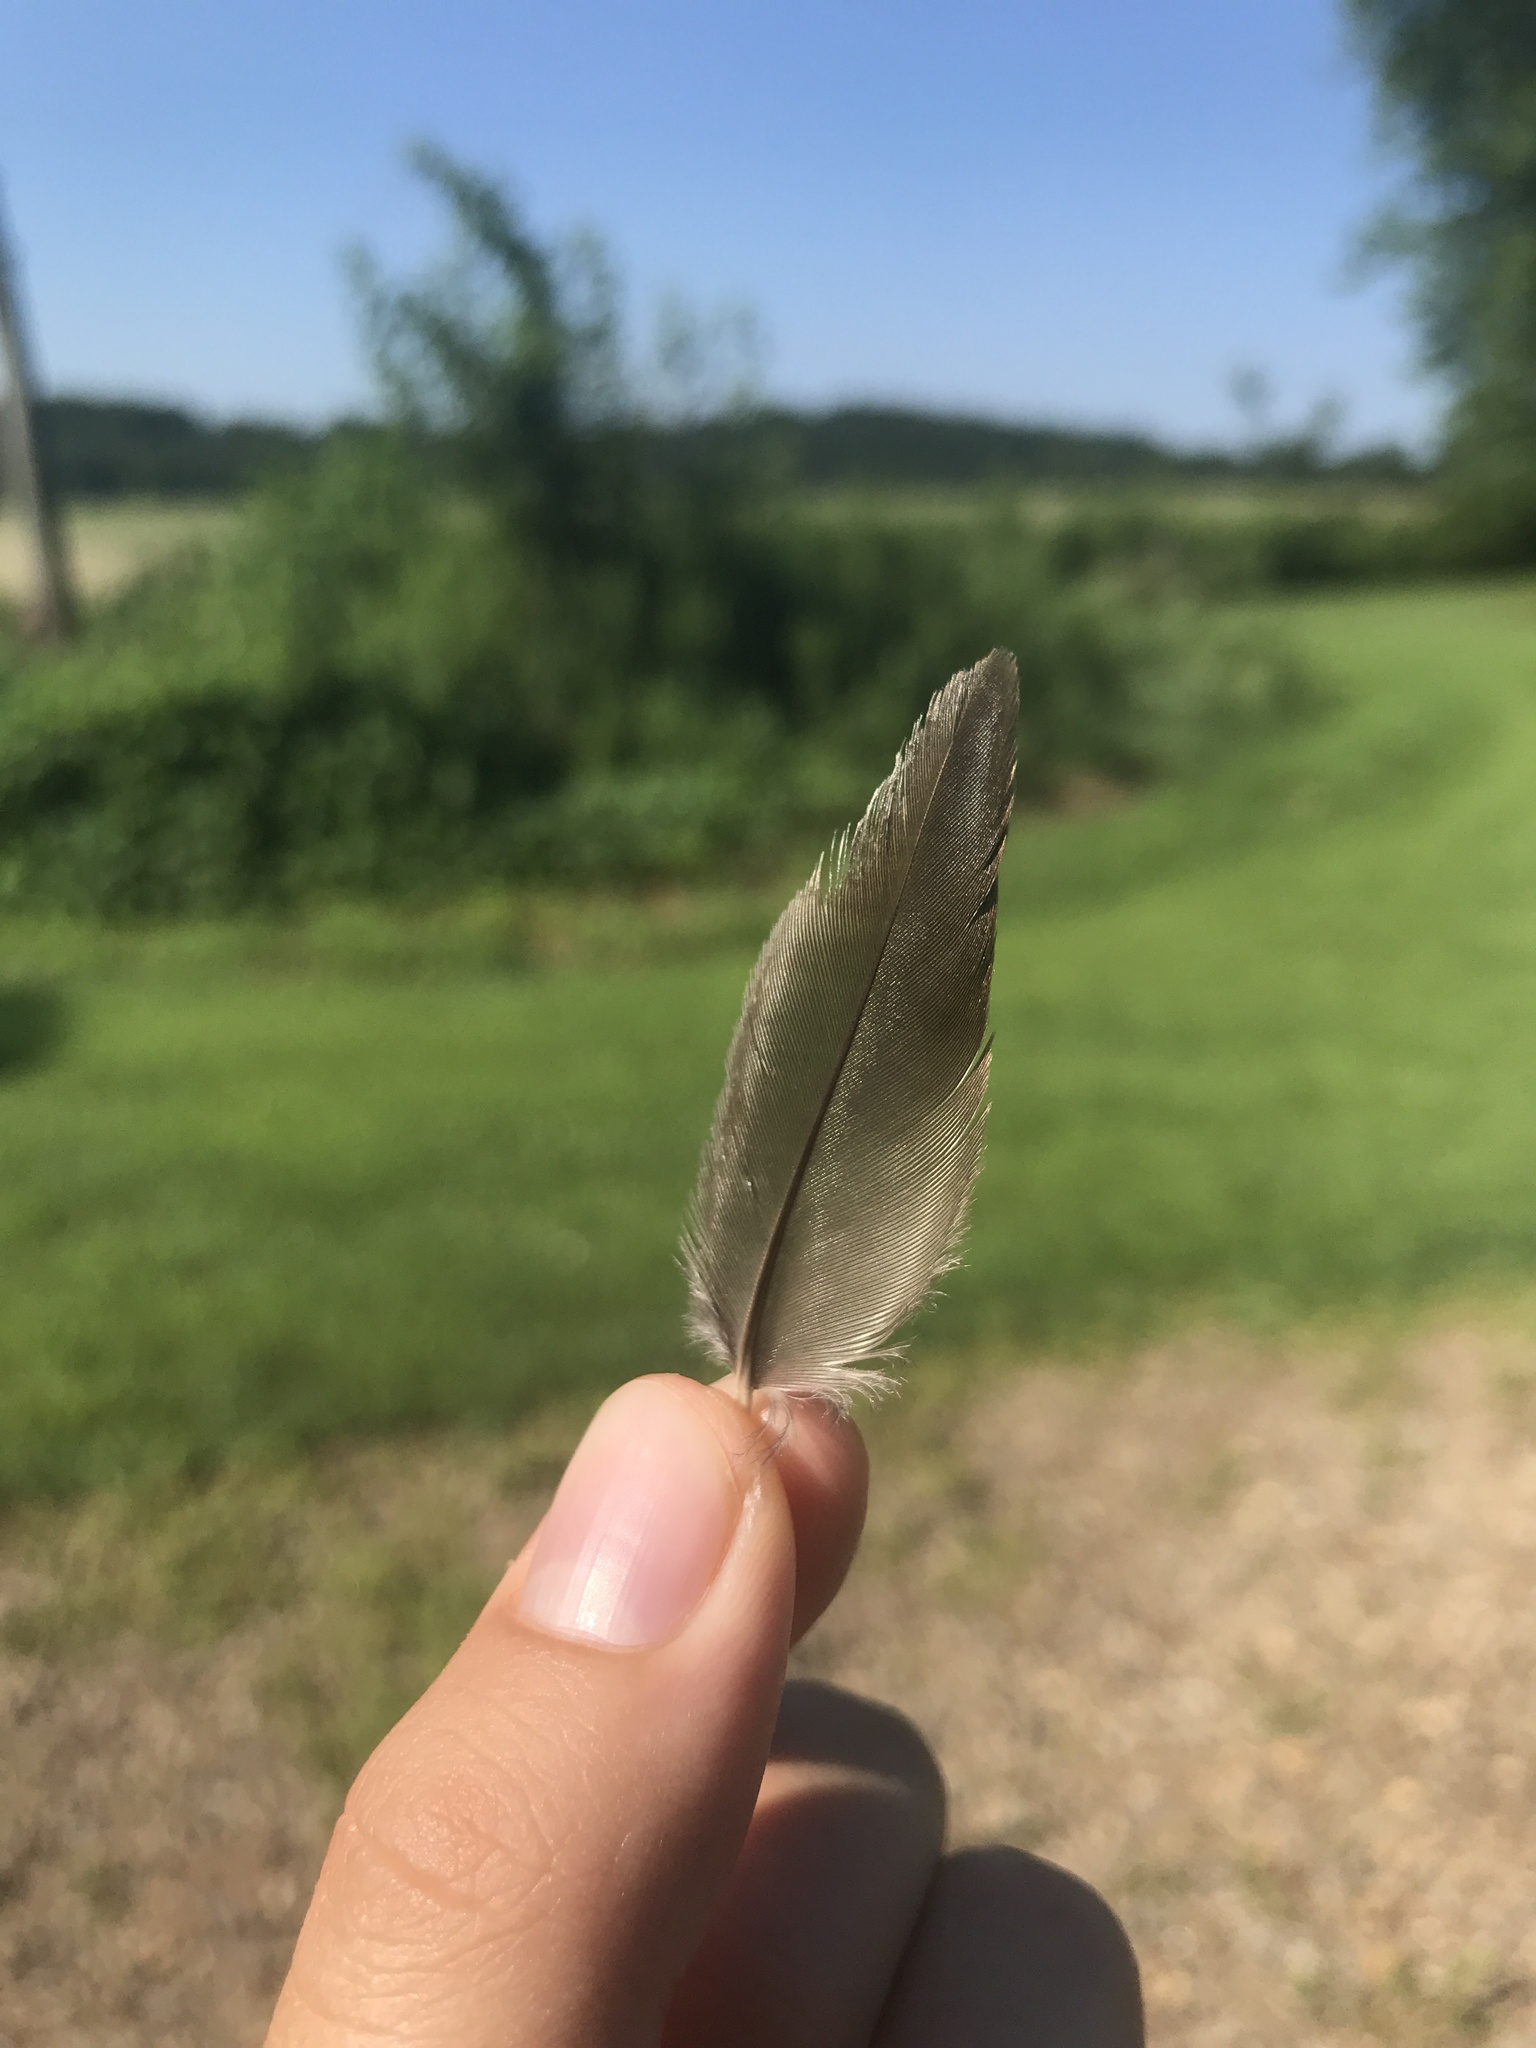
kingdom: Animalia
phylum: Chordata
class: Aves
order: Passeriformes
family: Turdidae
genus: Turdus
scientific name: Turdus migratorius
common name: American robin
